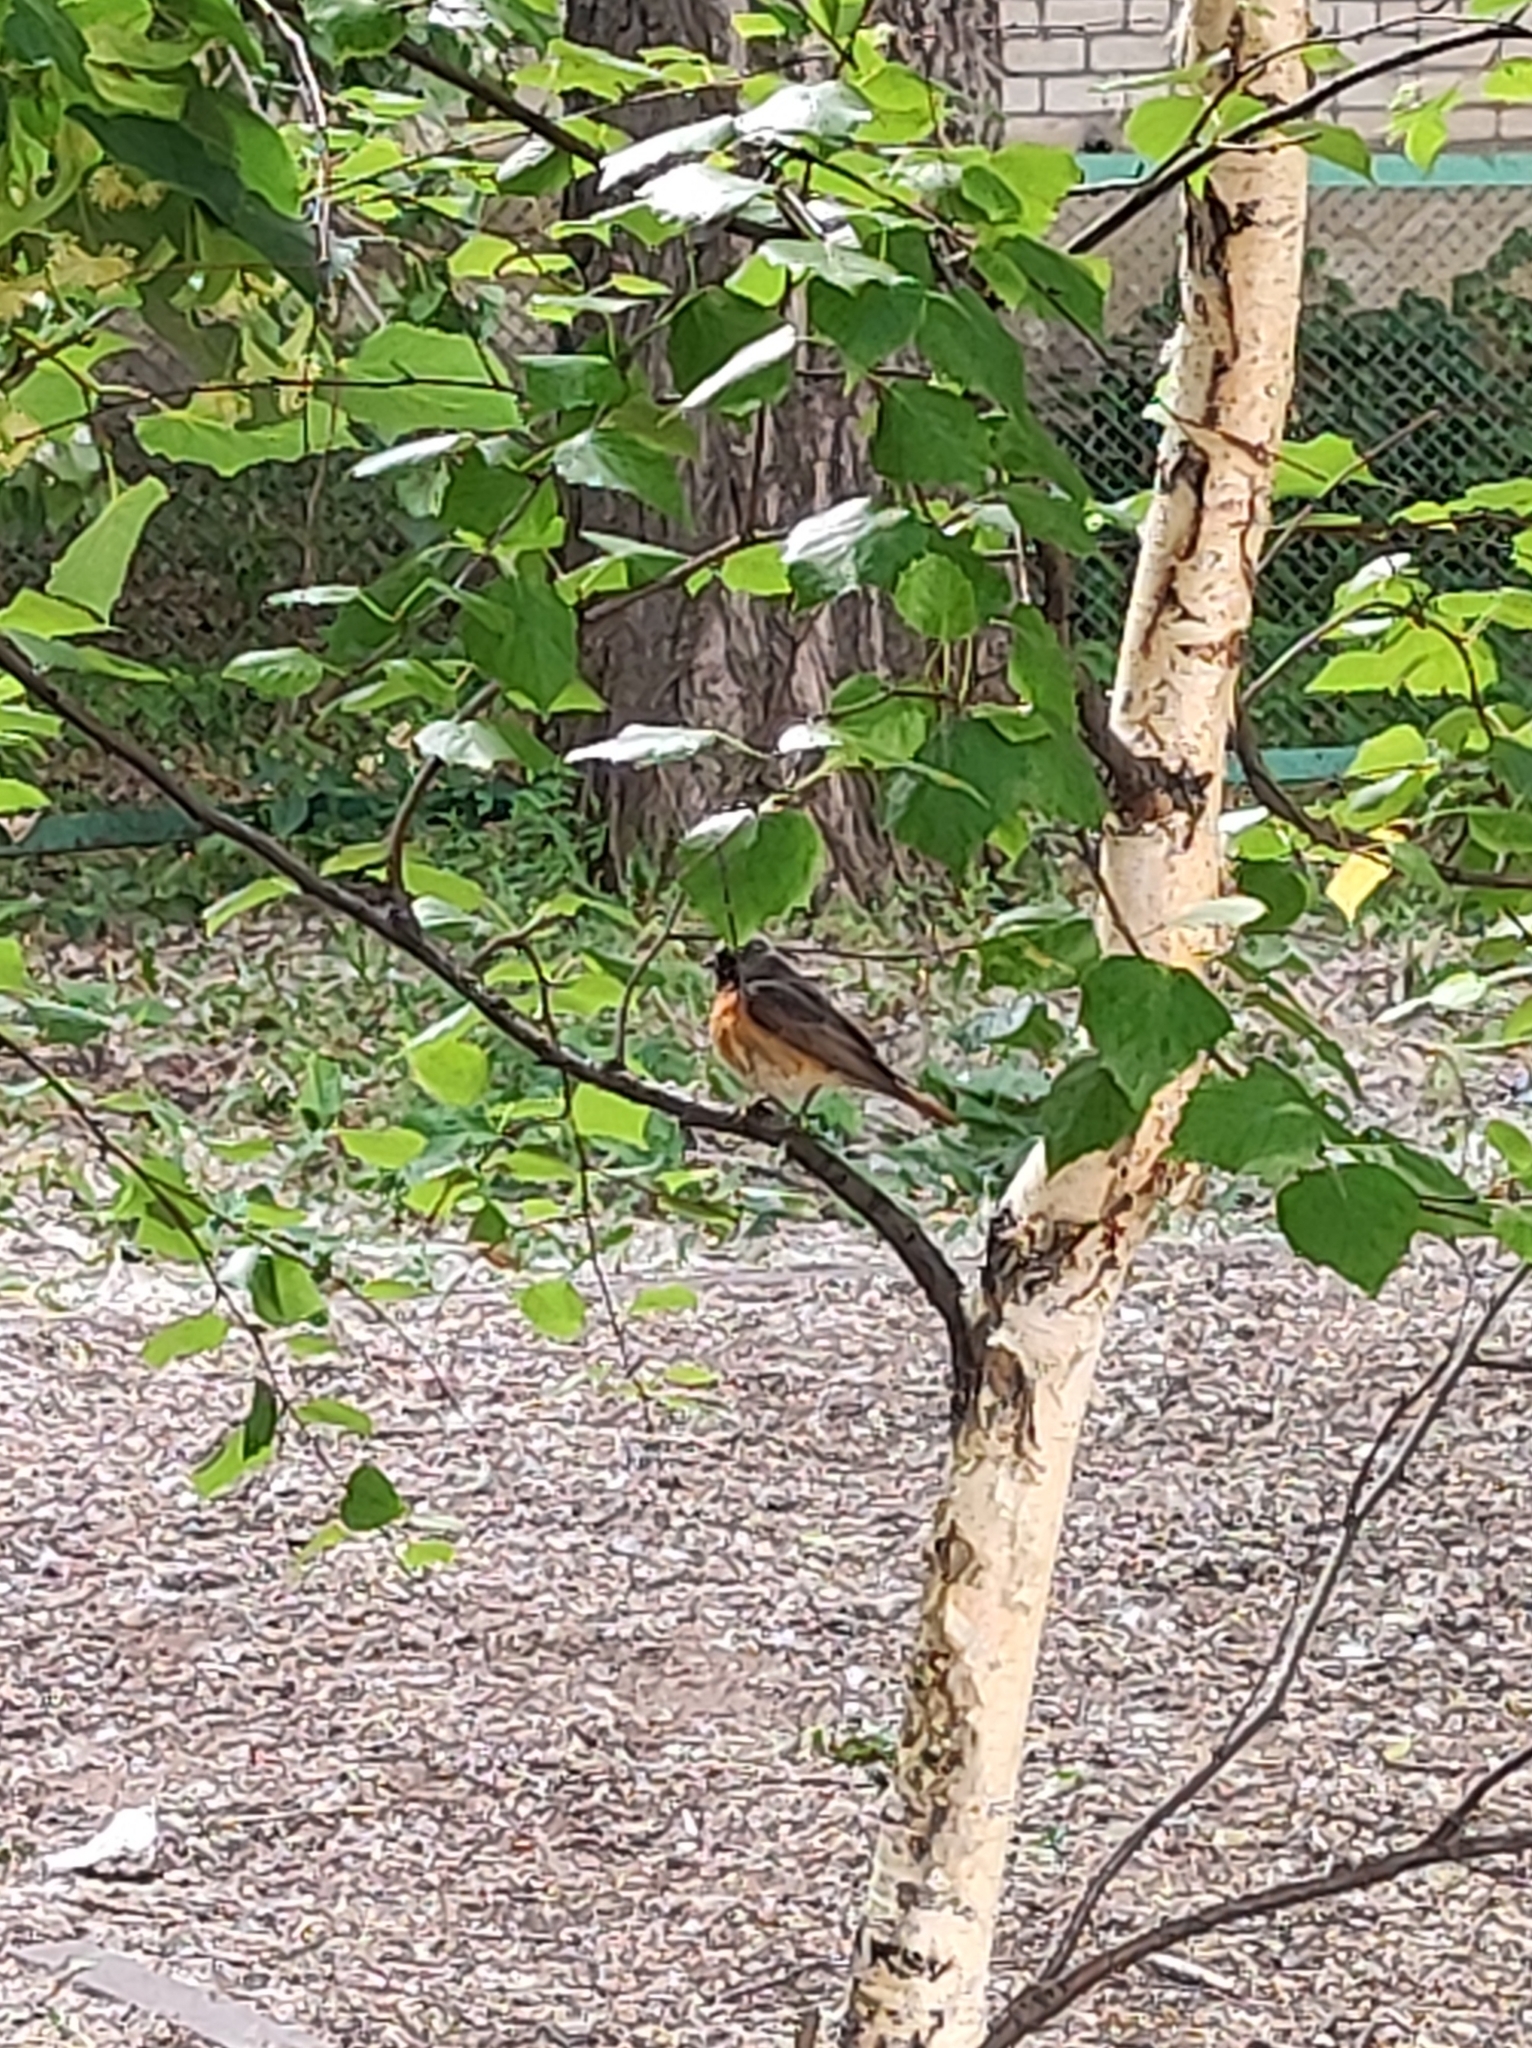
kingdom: Animalia
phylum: Chordata
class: Aves
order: Passeriformes
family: Muscicapidae
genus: Phoenicurus
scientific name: Phoenicurus phoenicurus
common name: Common redstart
